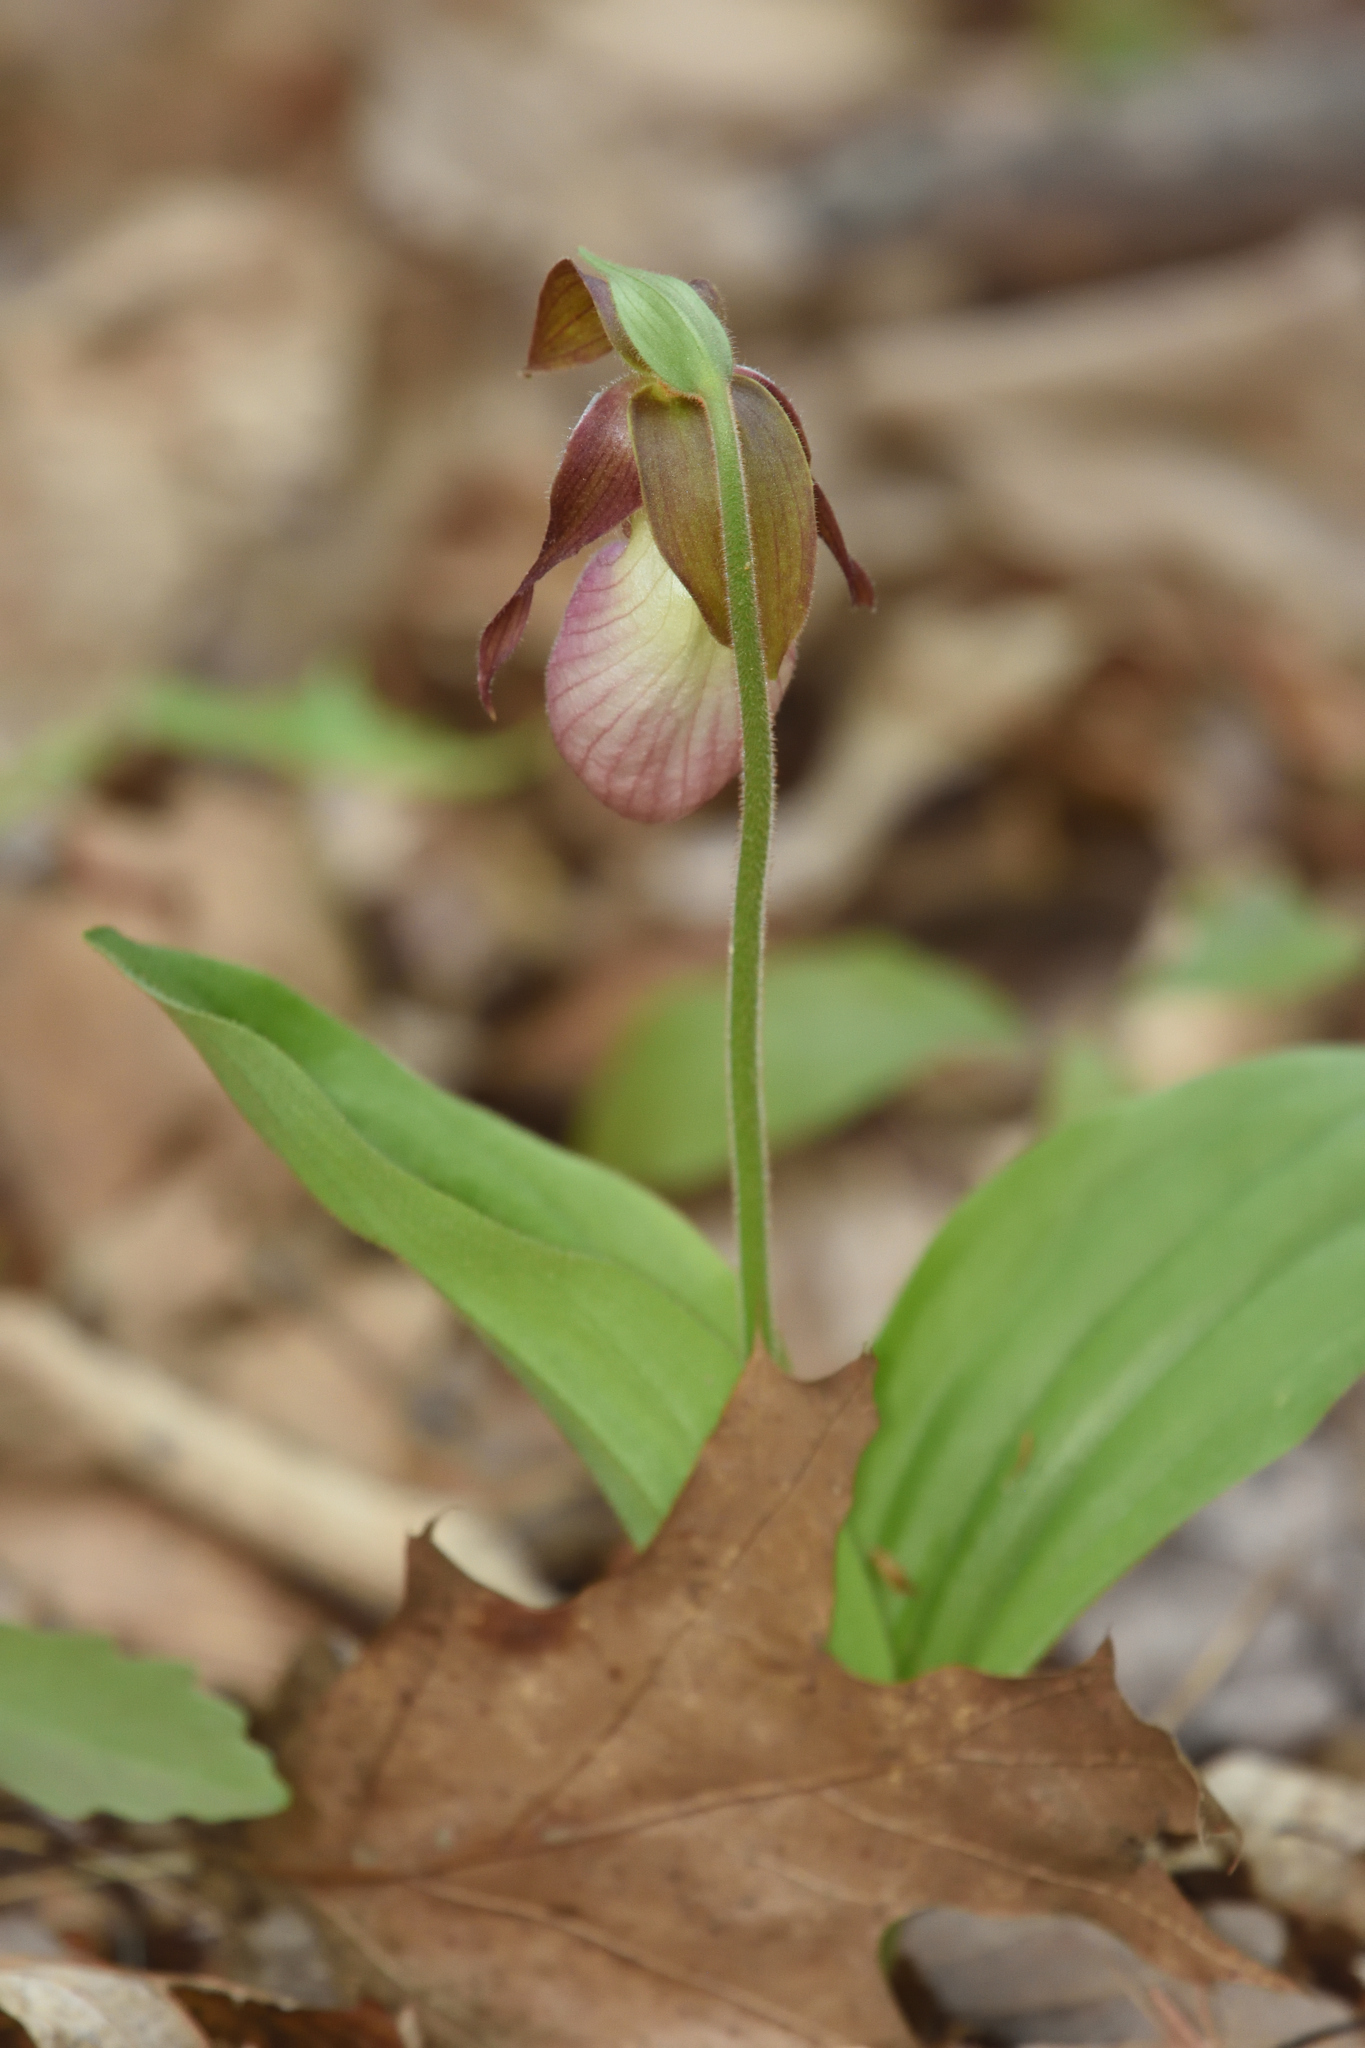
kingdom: Plantae
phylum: Tracheophyta
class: Liliopsida
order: Asparagales
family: Orchidaceae
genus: Cypripedium
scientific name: Cypripedium acaule
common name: Pink lady's-slipper
